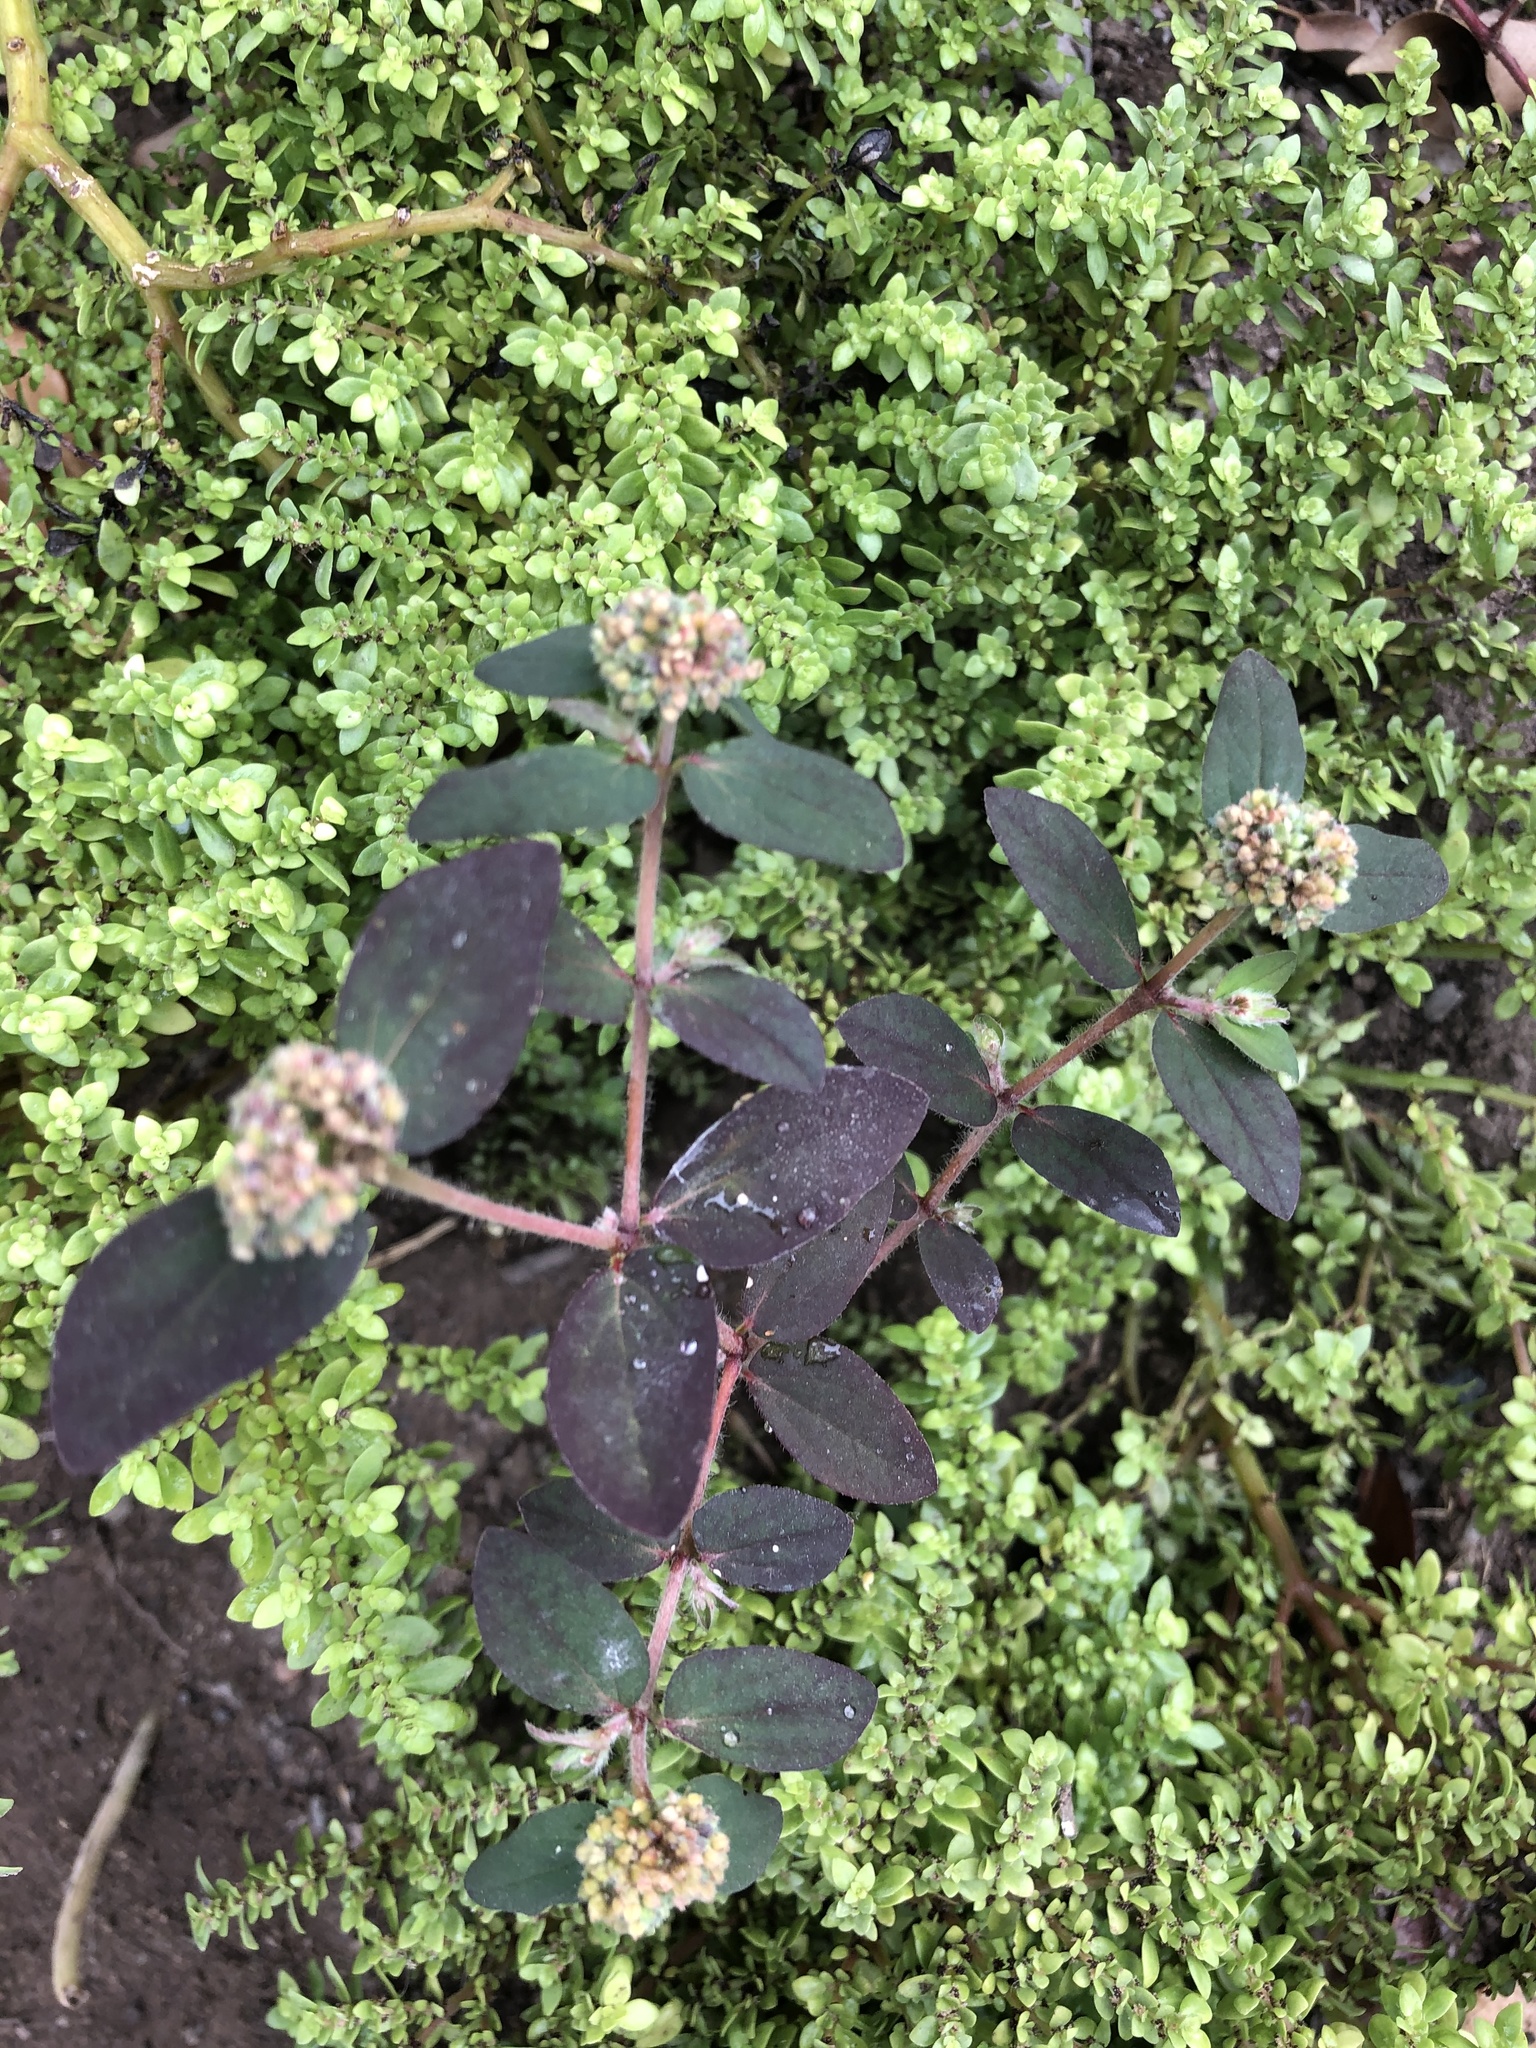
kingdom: Plantae
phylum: Tracheophyta
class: Magnoliopsida
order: Malpighiales
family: Euphorbiaceae
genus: Euphorbia
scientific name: Euphorbia ophthalmica
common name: Florida hammock sandmat
